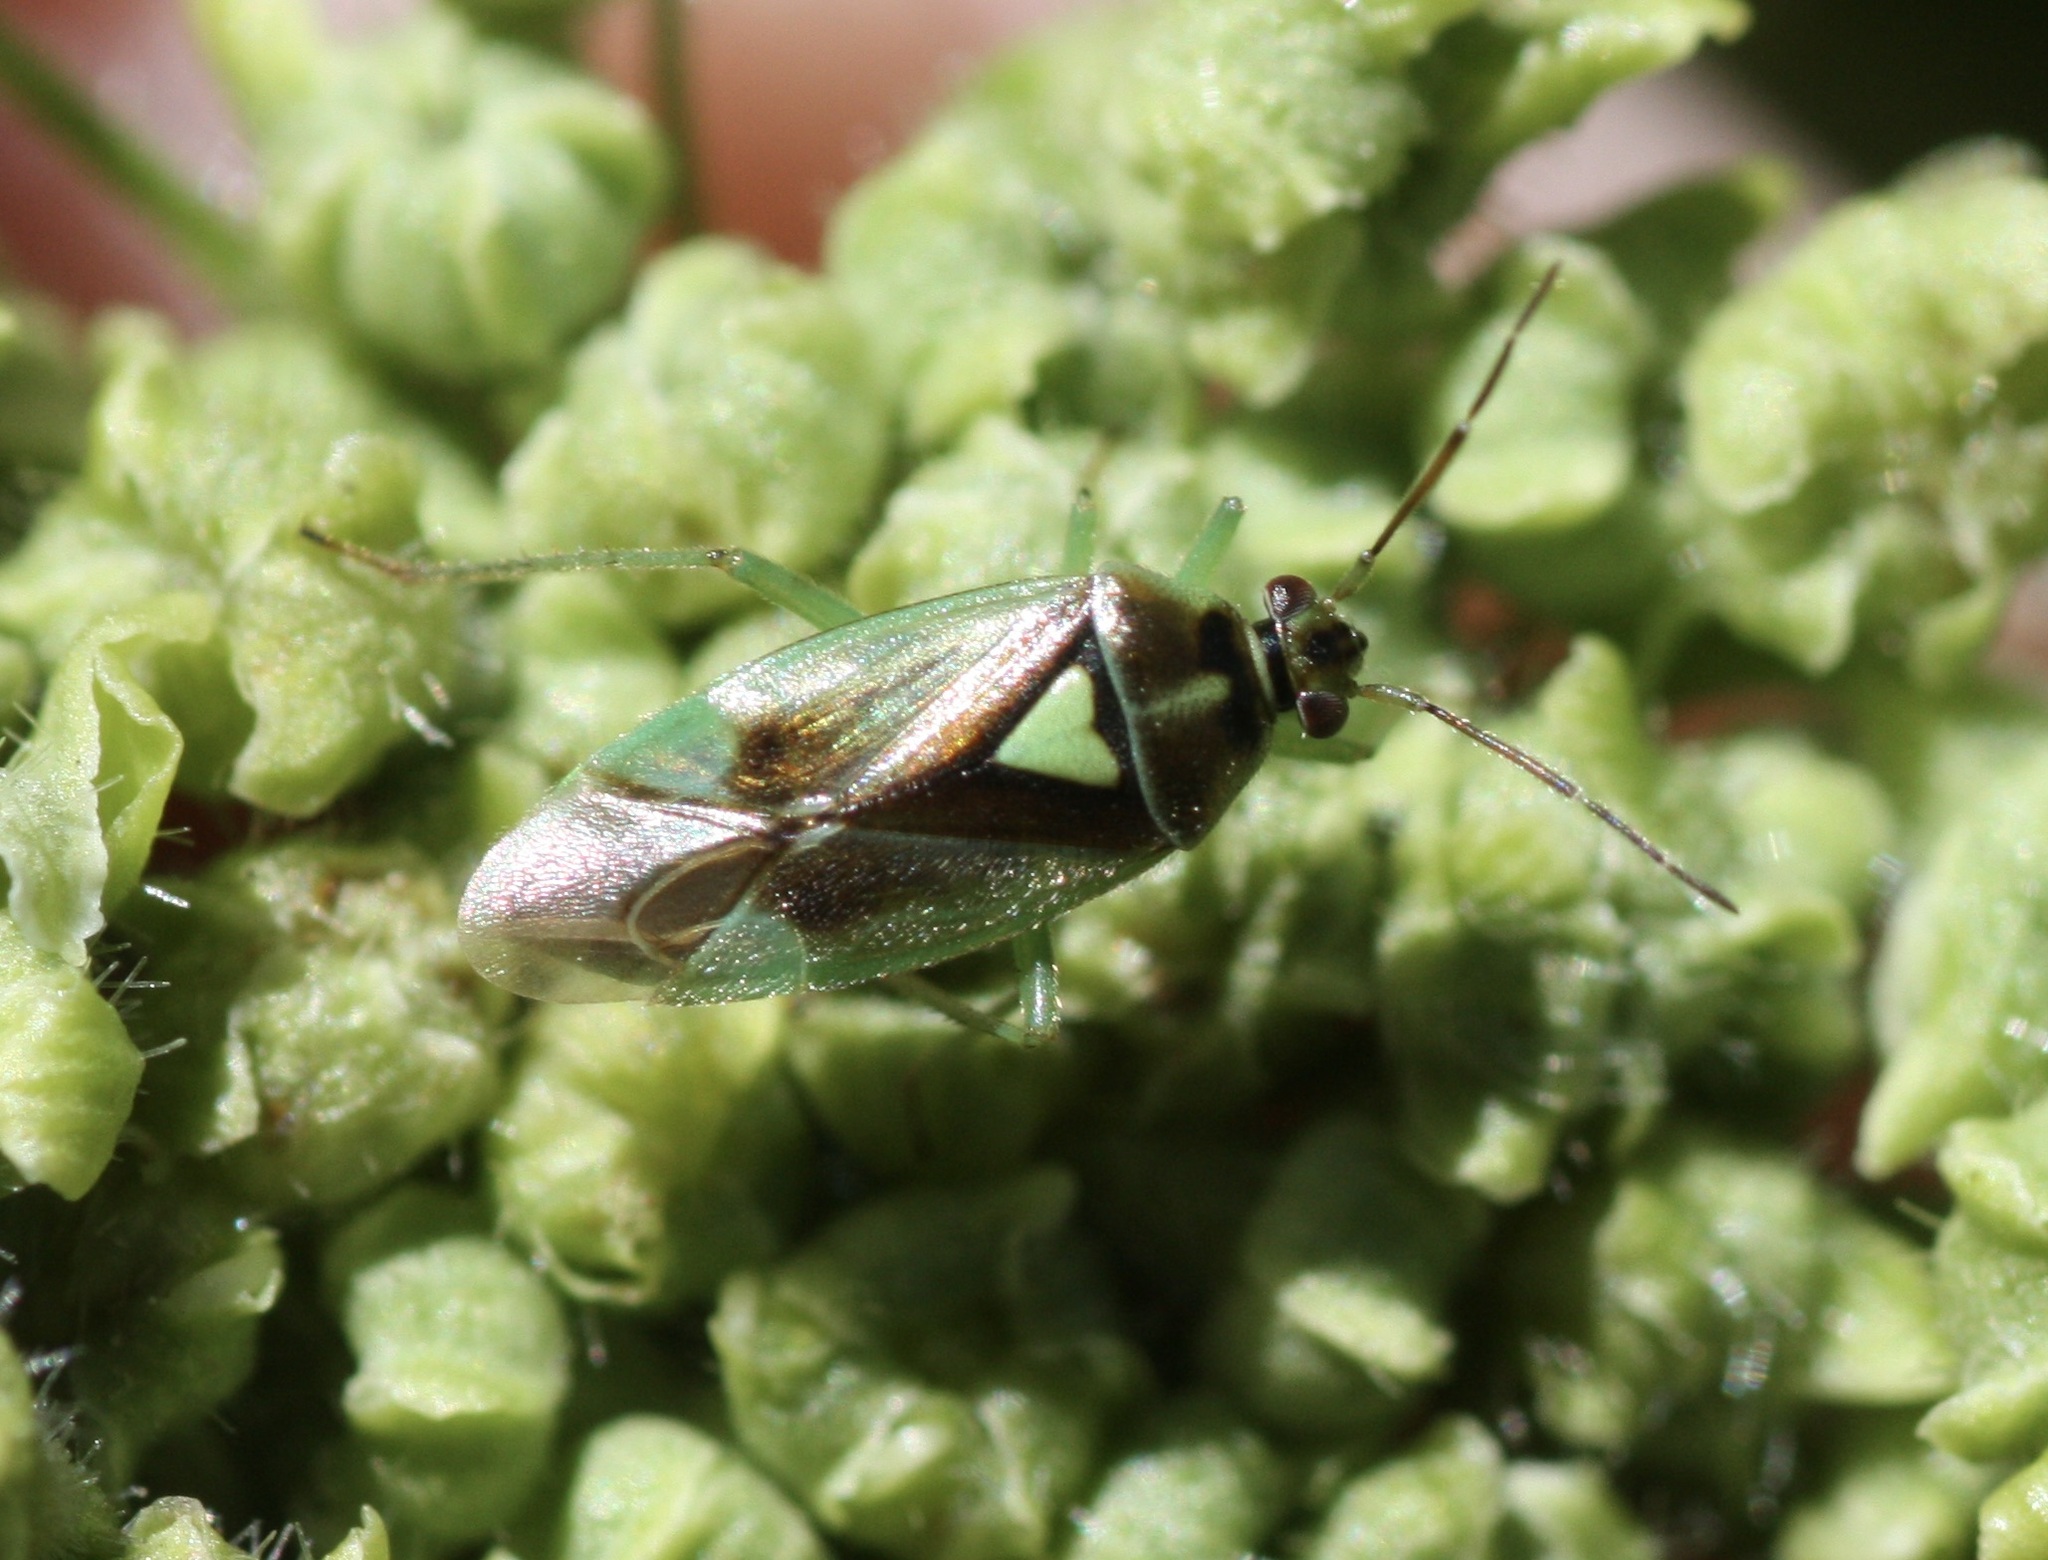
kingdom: Animalia
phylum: Arthropoda
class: Insecta
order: Hemiptera
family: Miridae
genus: Orthops
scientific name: Orthops scutellatus
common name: Plant bug
